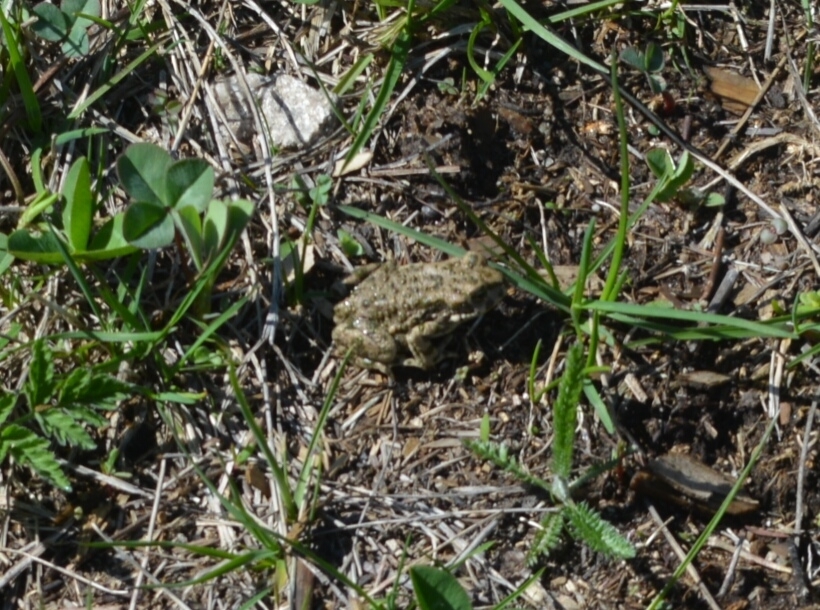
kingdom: Animalia
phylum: Chordata
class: Amphibia
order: Anura
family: Bufonidae
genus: Bufotes
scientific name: Bufotes viridis
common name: European green toad
